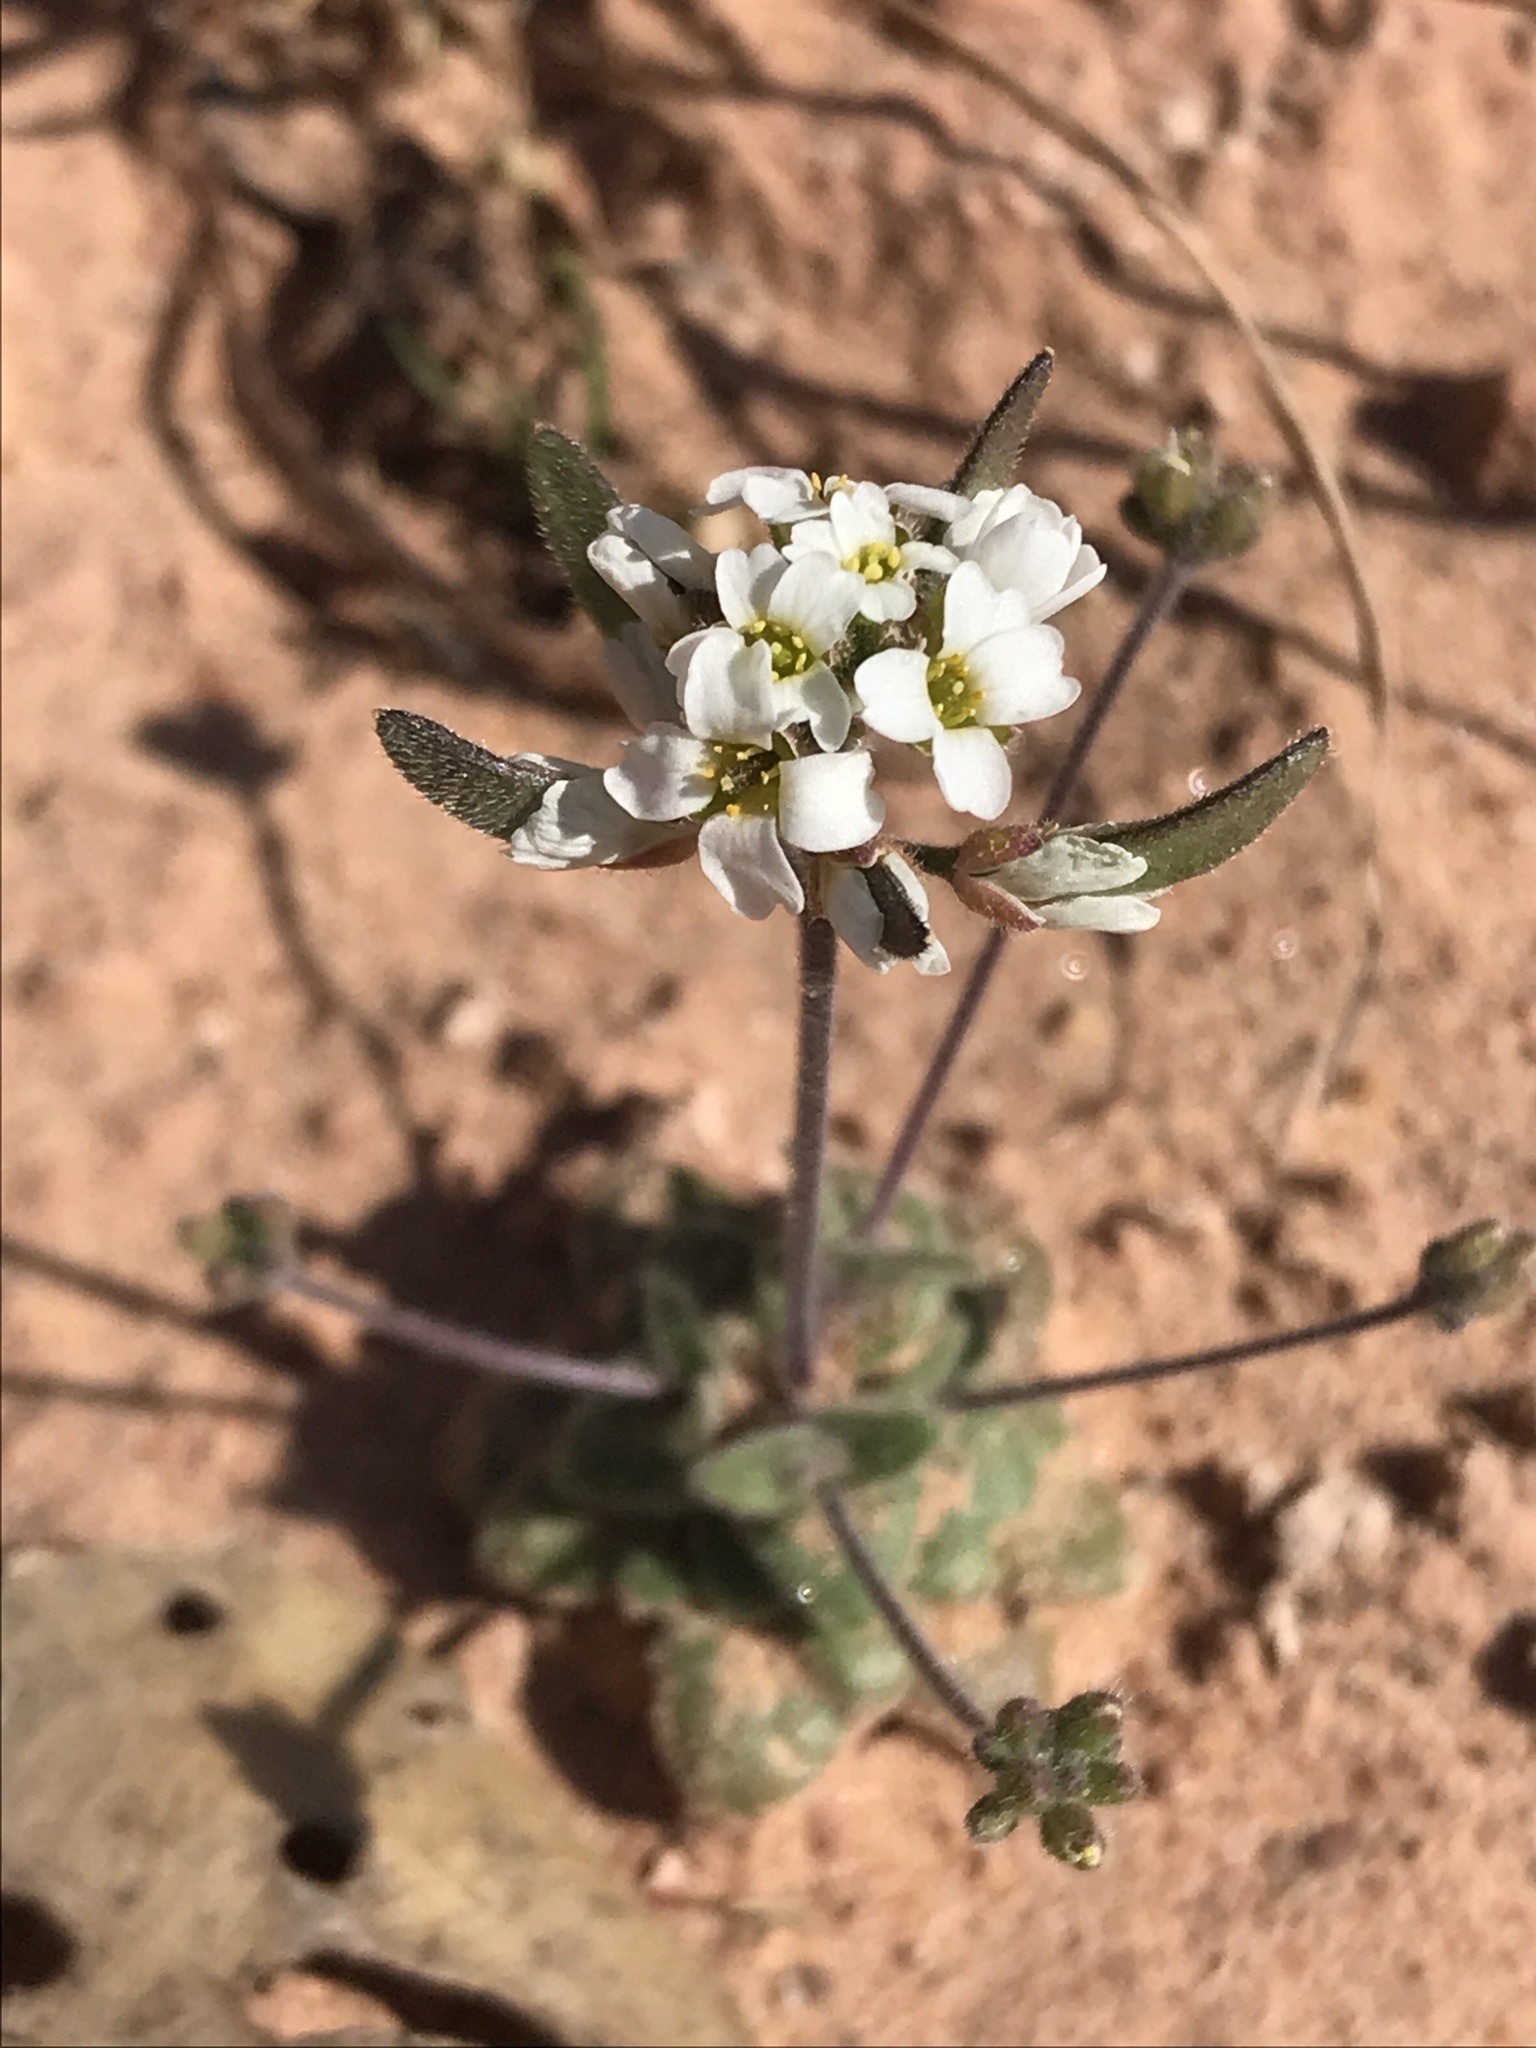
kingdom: Plantae
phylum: Tracheophyta
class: Magnoliopsida
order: Brassicales
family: Brassicaceae
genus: Tomostima
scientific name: Tomostima cuneifolia
